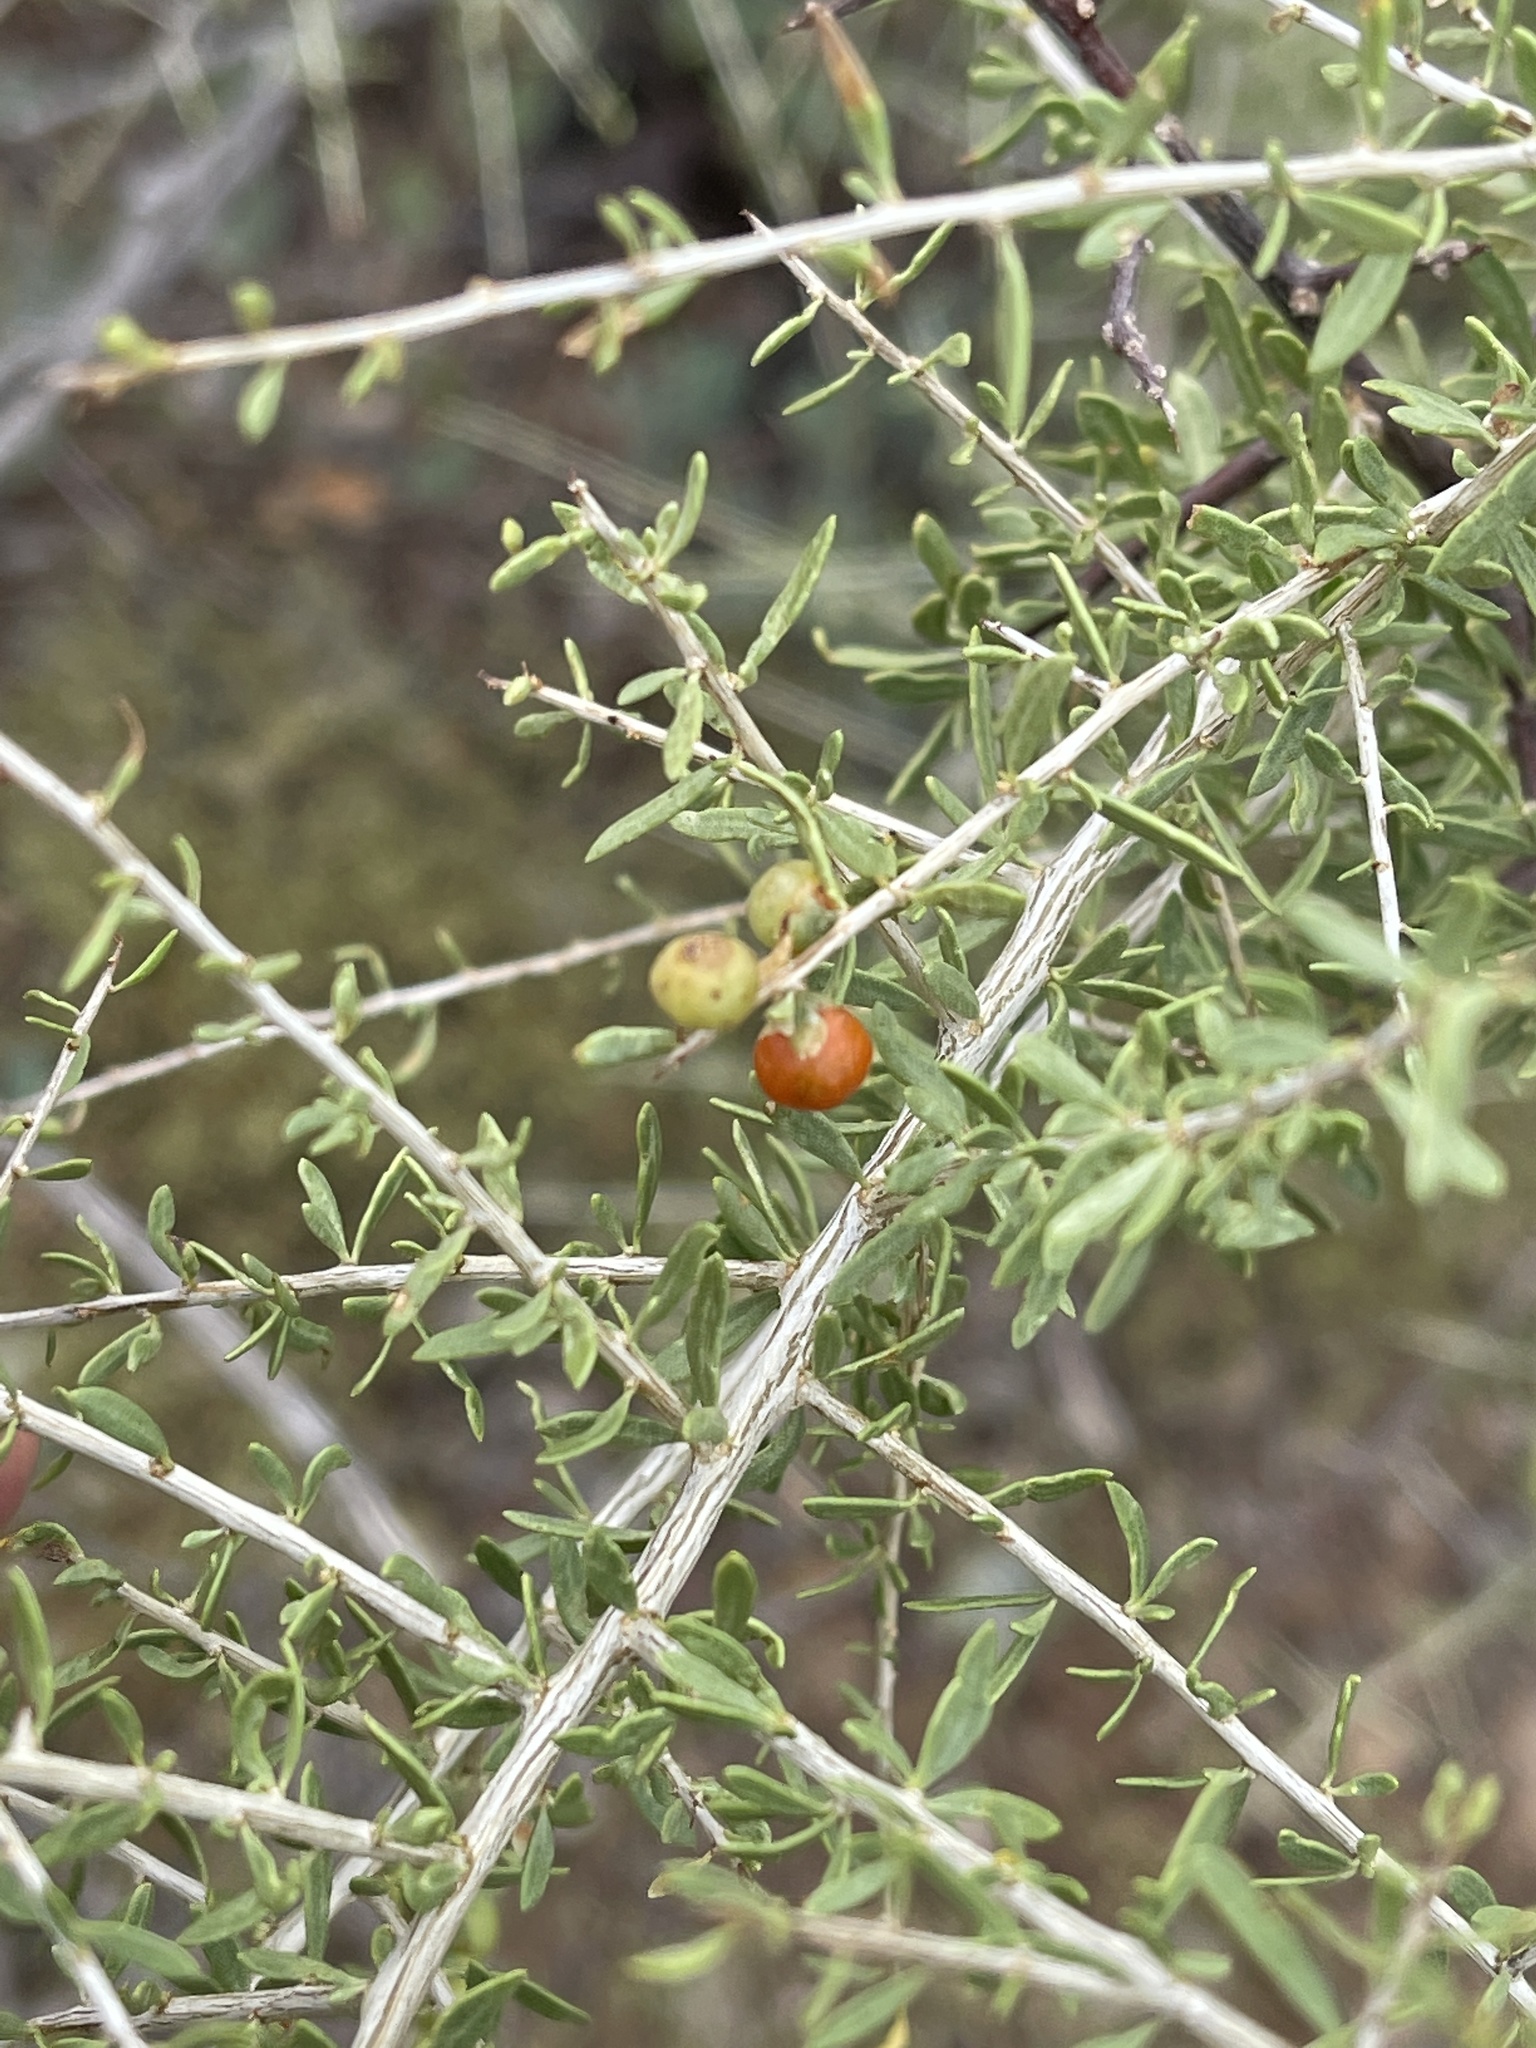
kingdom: Plantae
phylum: Tracheophyta
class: Magnoliopsida
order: Solanales
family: Solanaceae
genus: Lycium
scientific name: Lycium andersonii
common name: Water-jacket
